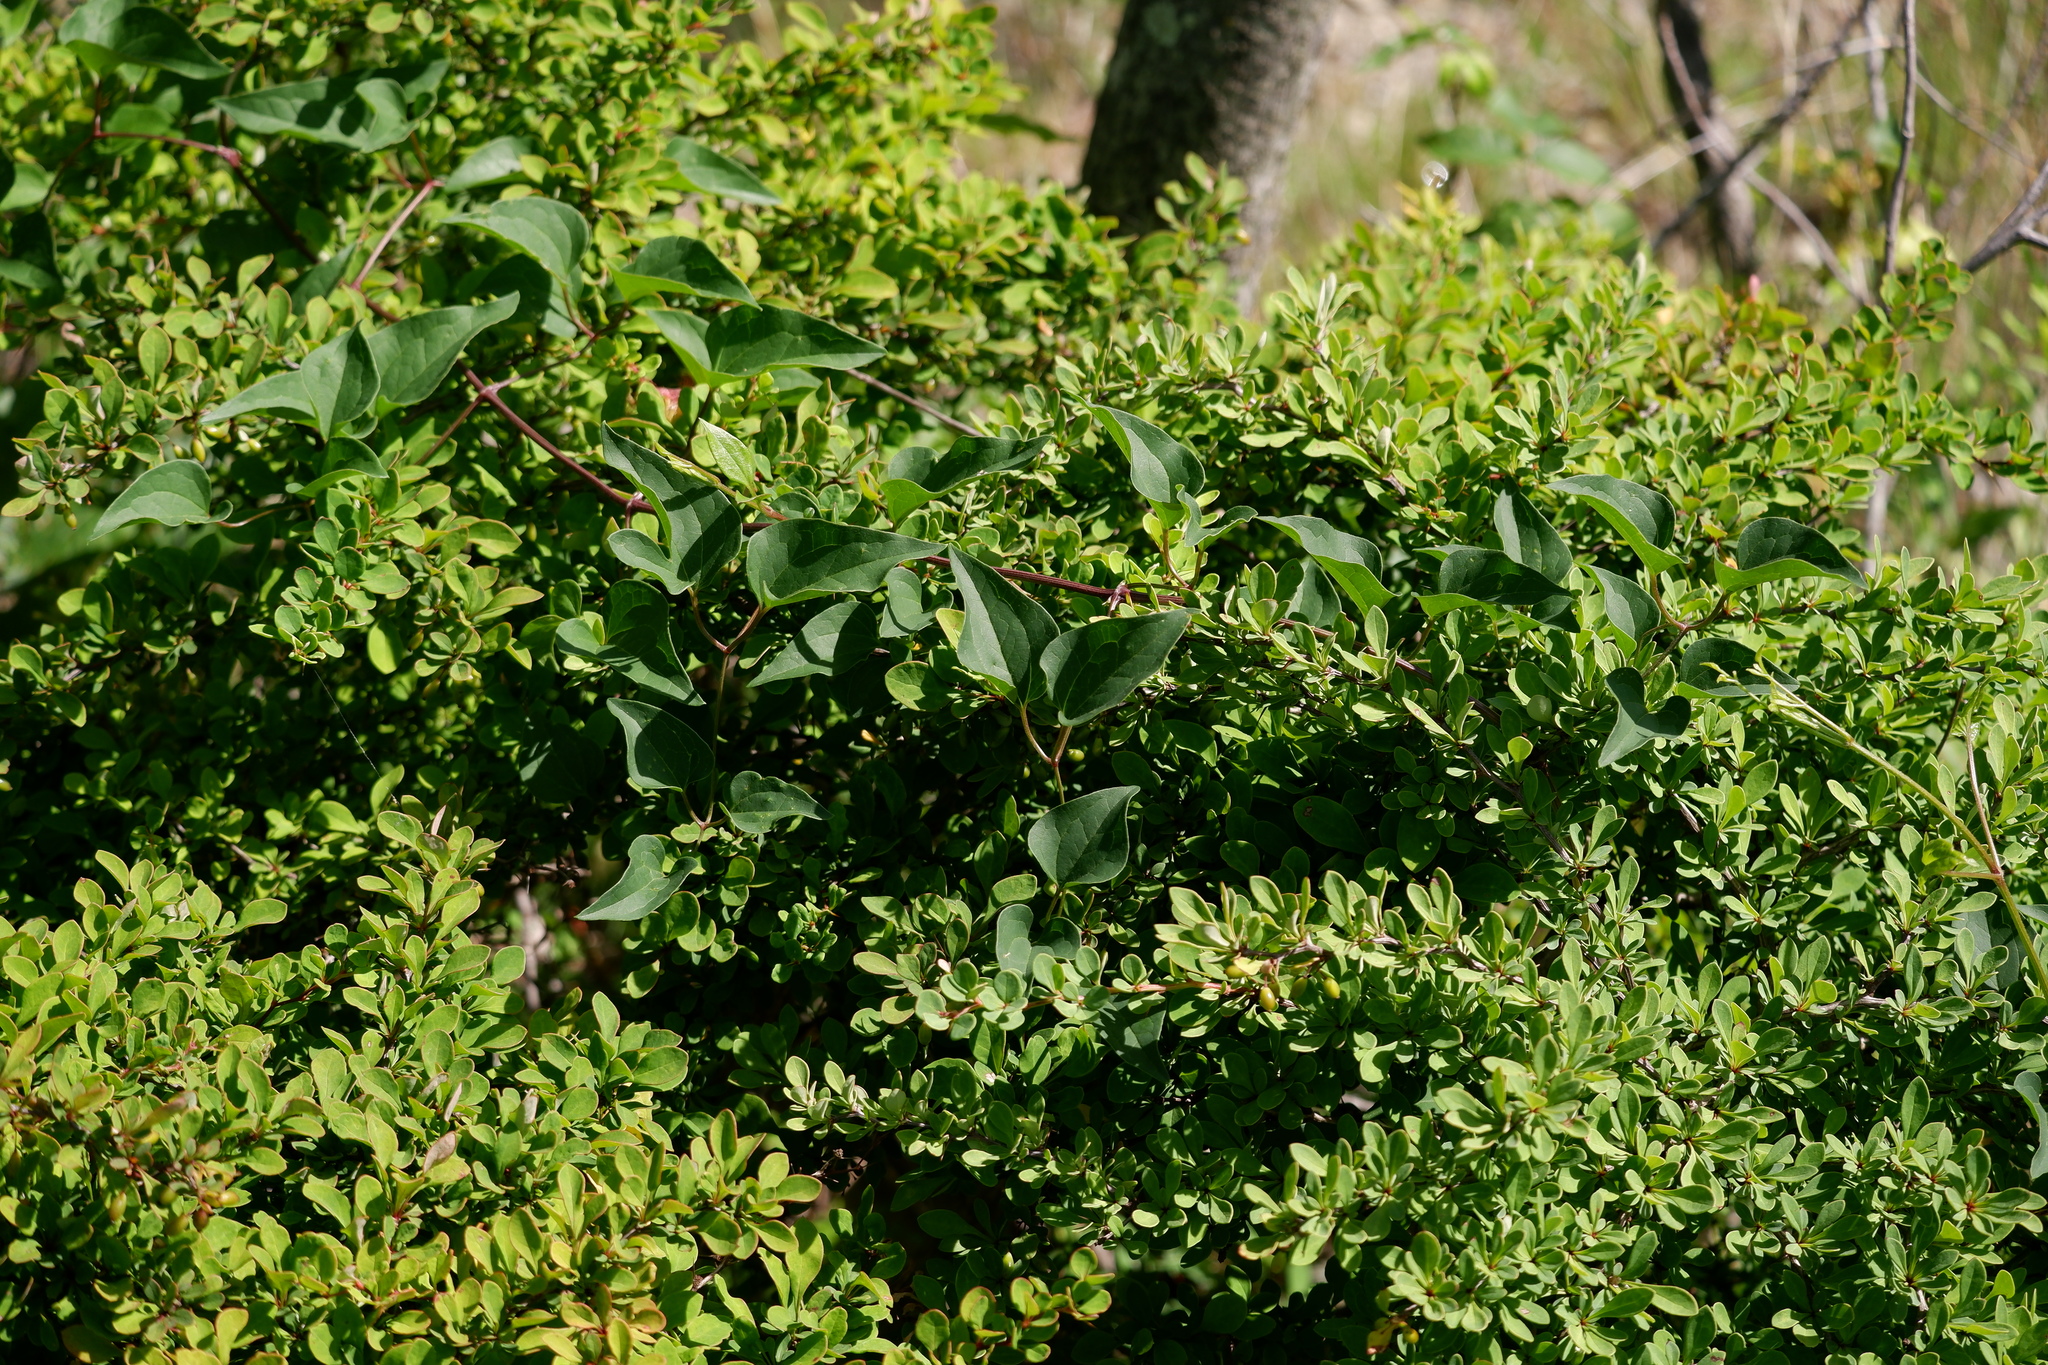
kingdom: Plantae
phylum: Tracheophyta
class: Magnoliopsida
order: Ranunculales
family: Berberidaceae
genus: Berberis
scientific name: Berberis thunbergii
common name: Japanese barberry
